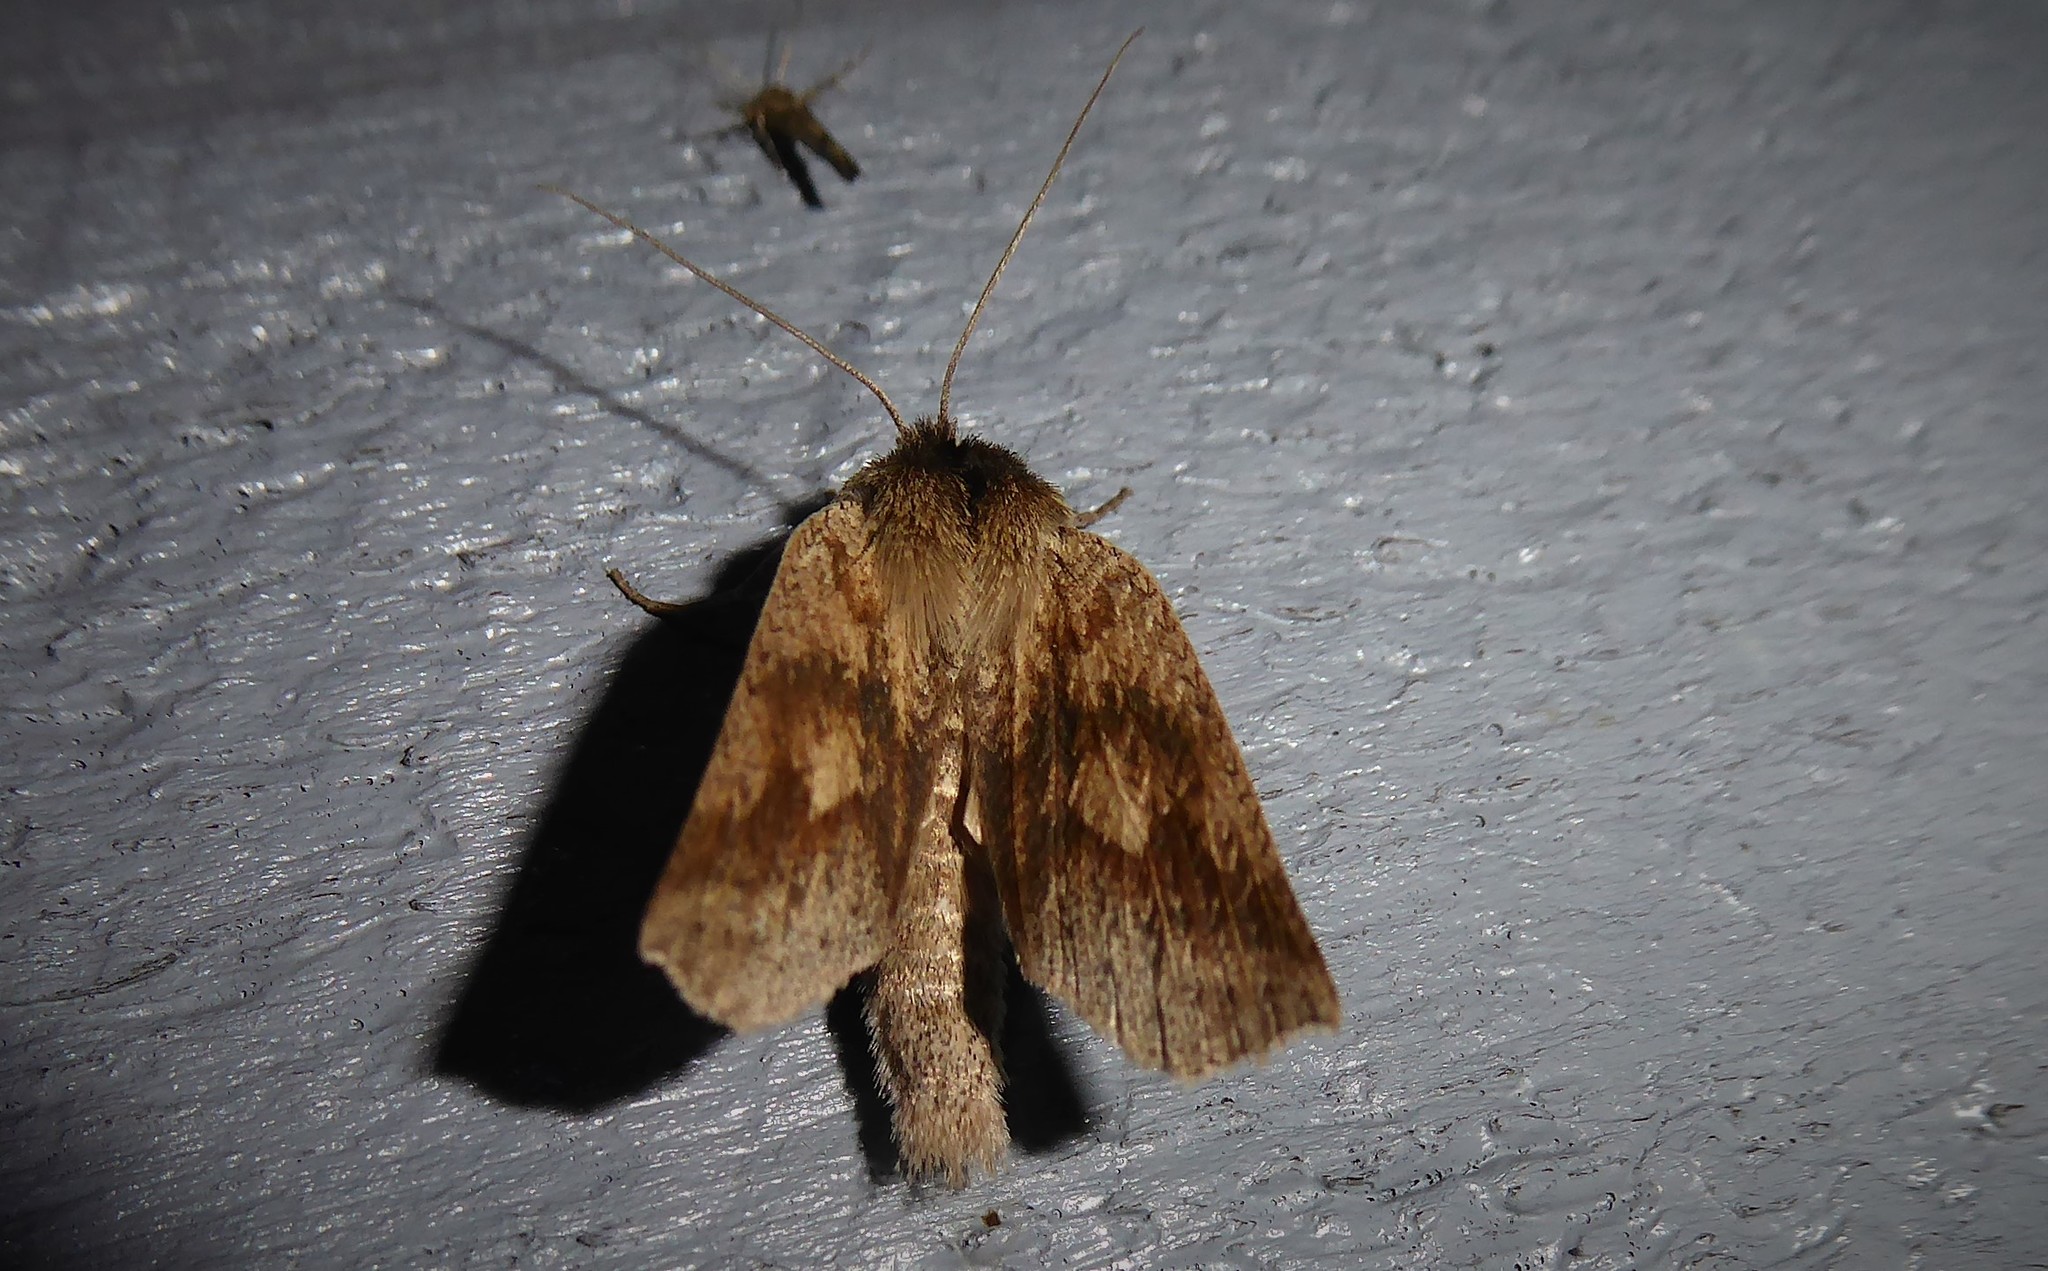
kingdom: Animalia
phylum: Arthropoda
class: Insecta
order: Lepidoptera
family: Geometridae
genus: Declana
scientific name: Declana leptomera
